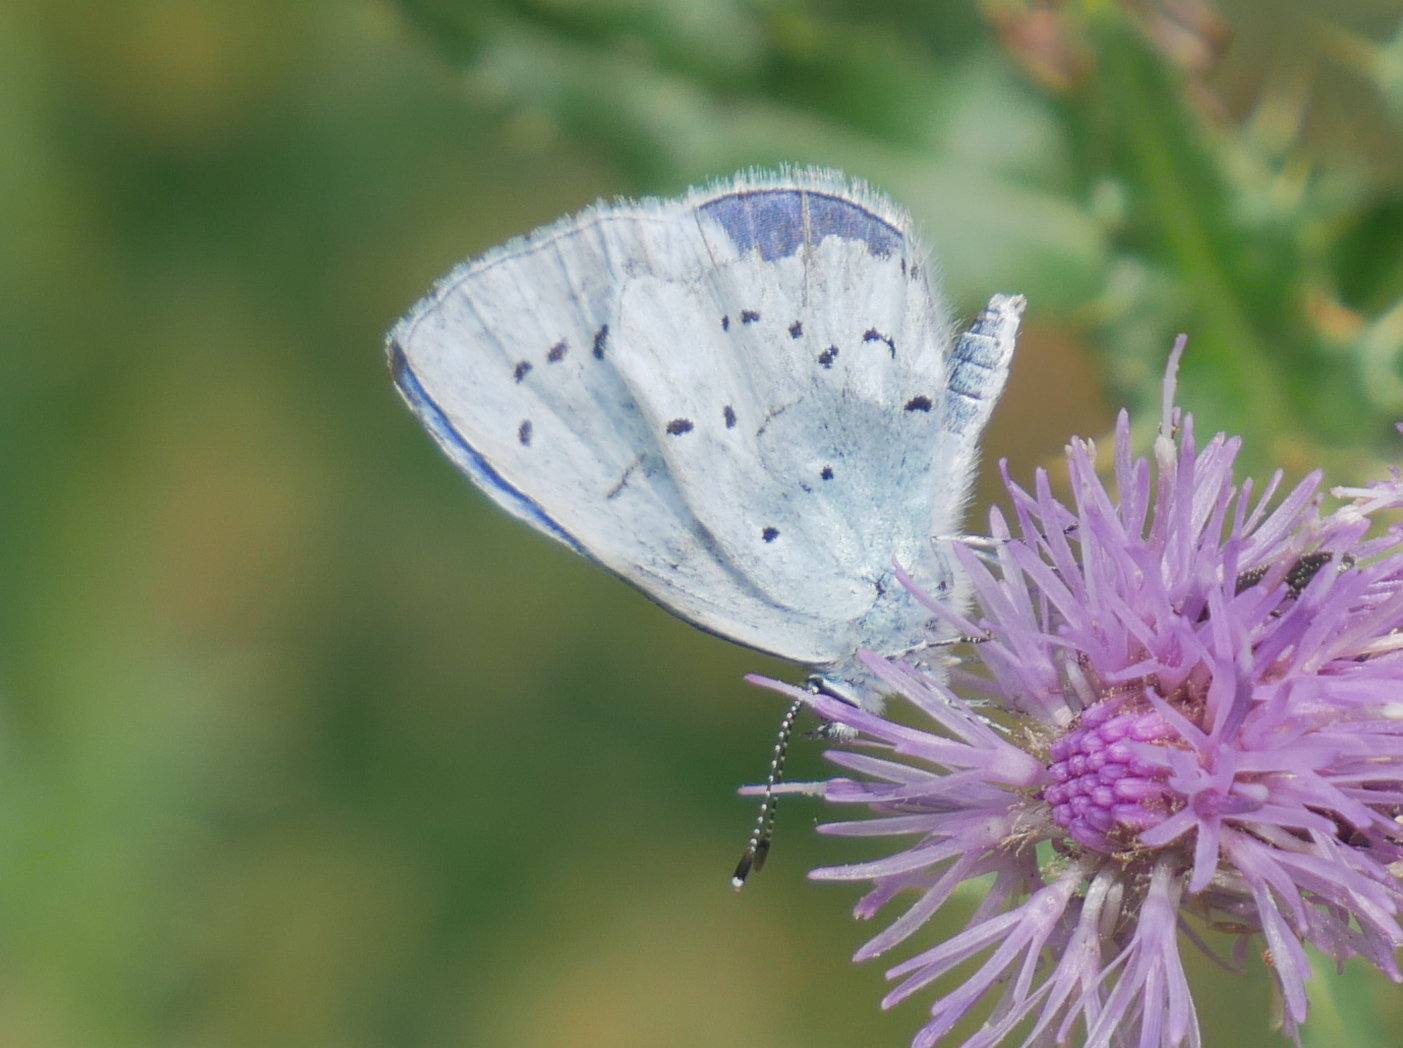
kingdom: Animalia
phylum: Arthropoda
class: Insecta
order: Lepidoptera
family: Lycaenidae
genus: Celastrina
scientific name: Celastrina argiolus
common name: Holly blue
